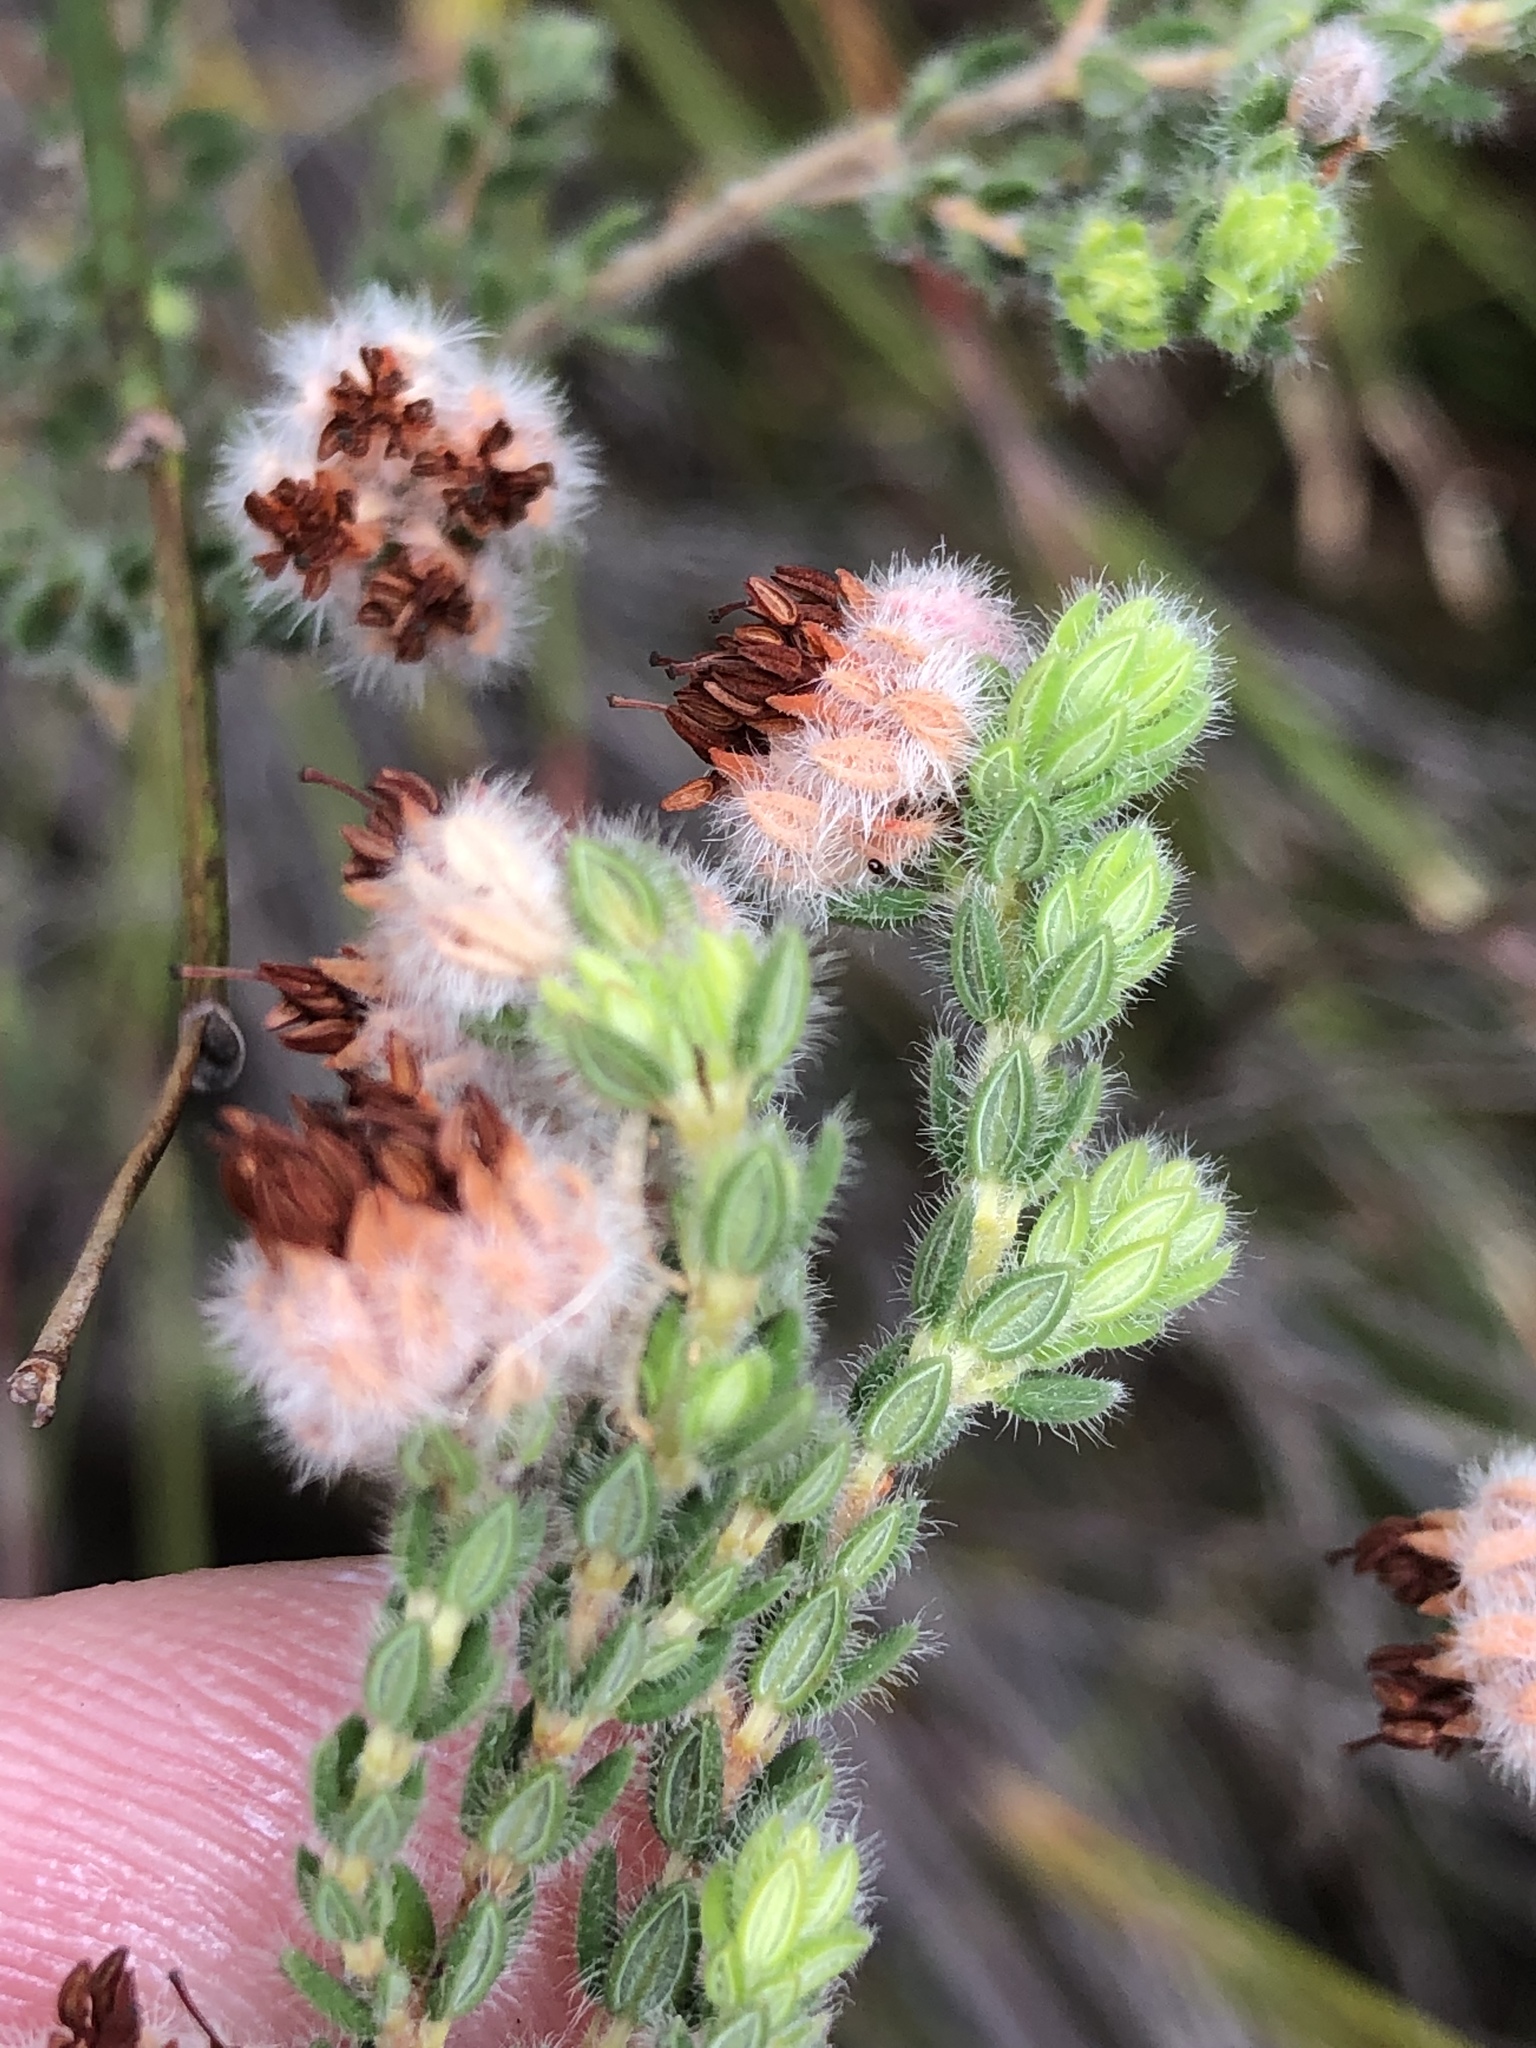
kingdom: Plantae
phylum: Tracheophyta
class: Magnoliopsida
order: Ericales
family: Ericaceae
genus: Erica
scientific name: Erica flaccida
